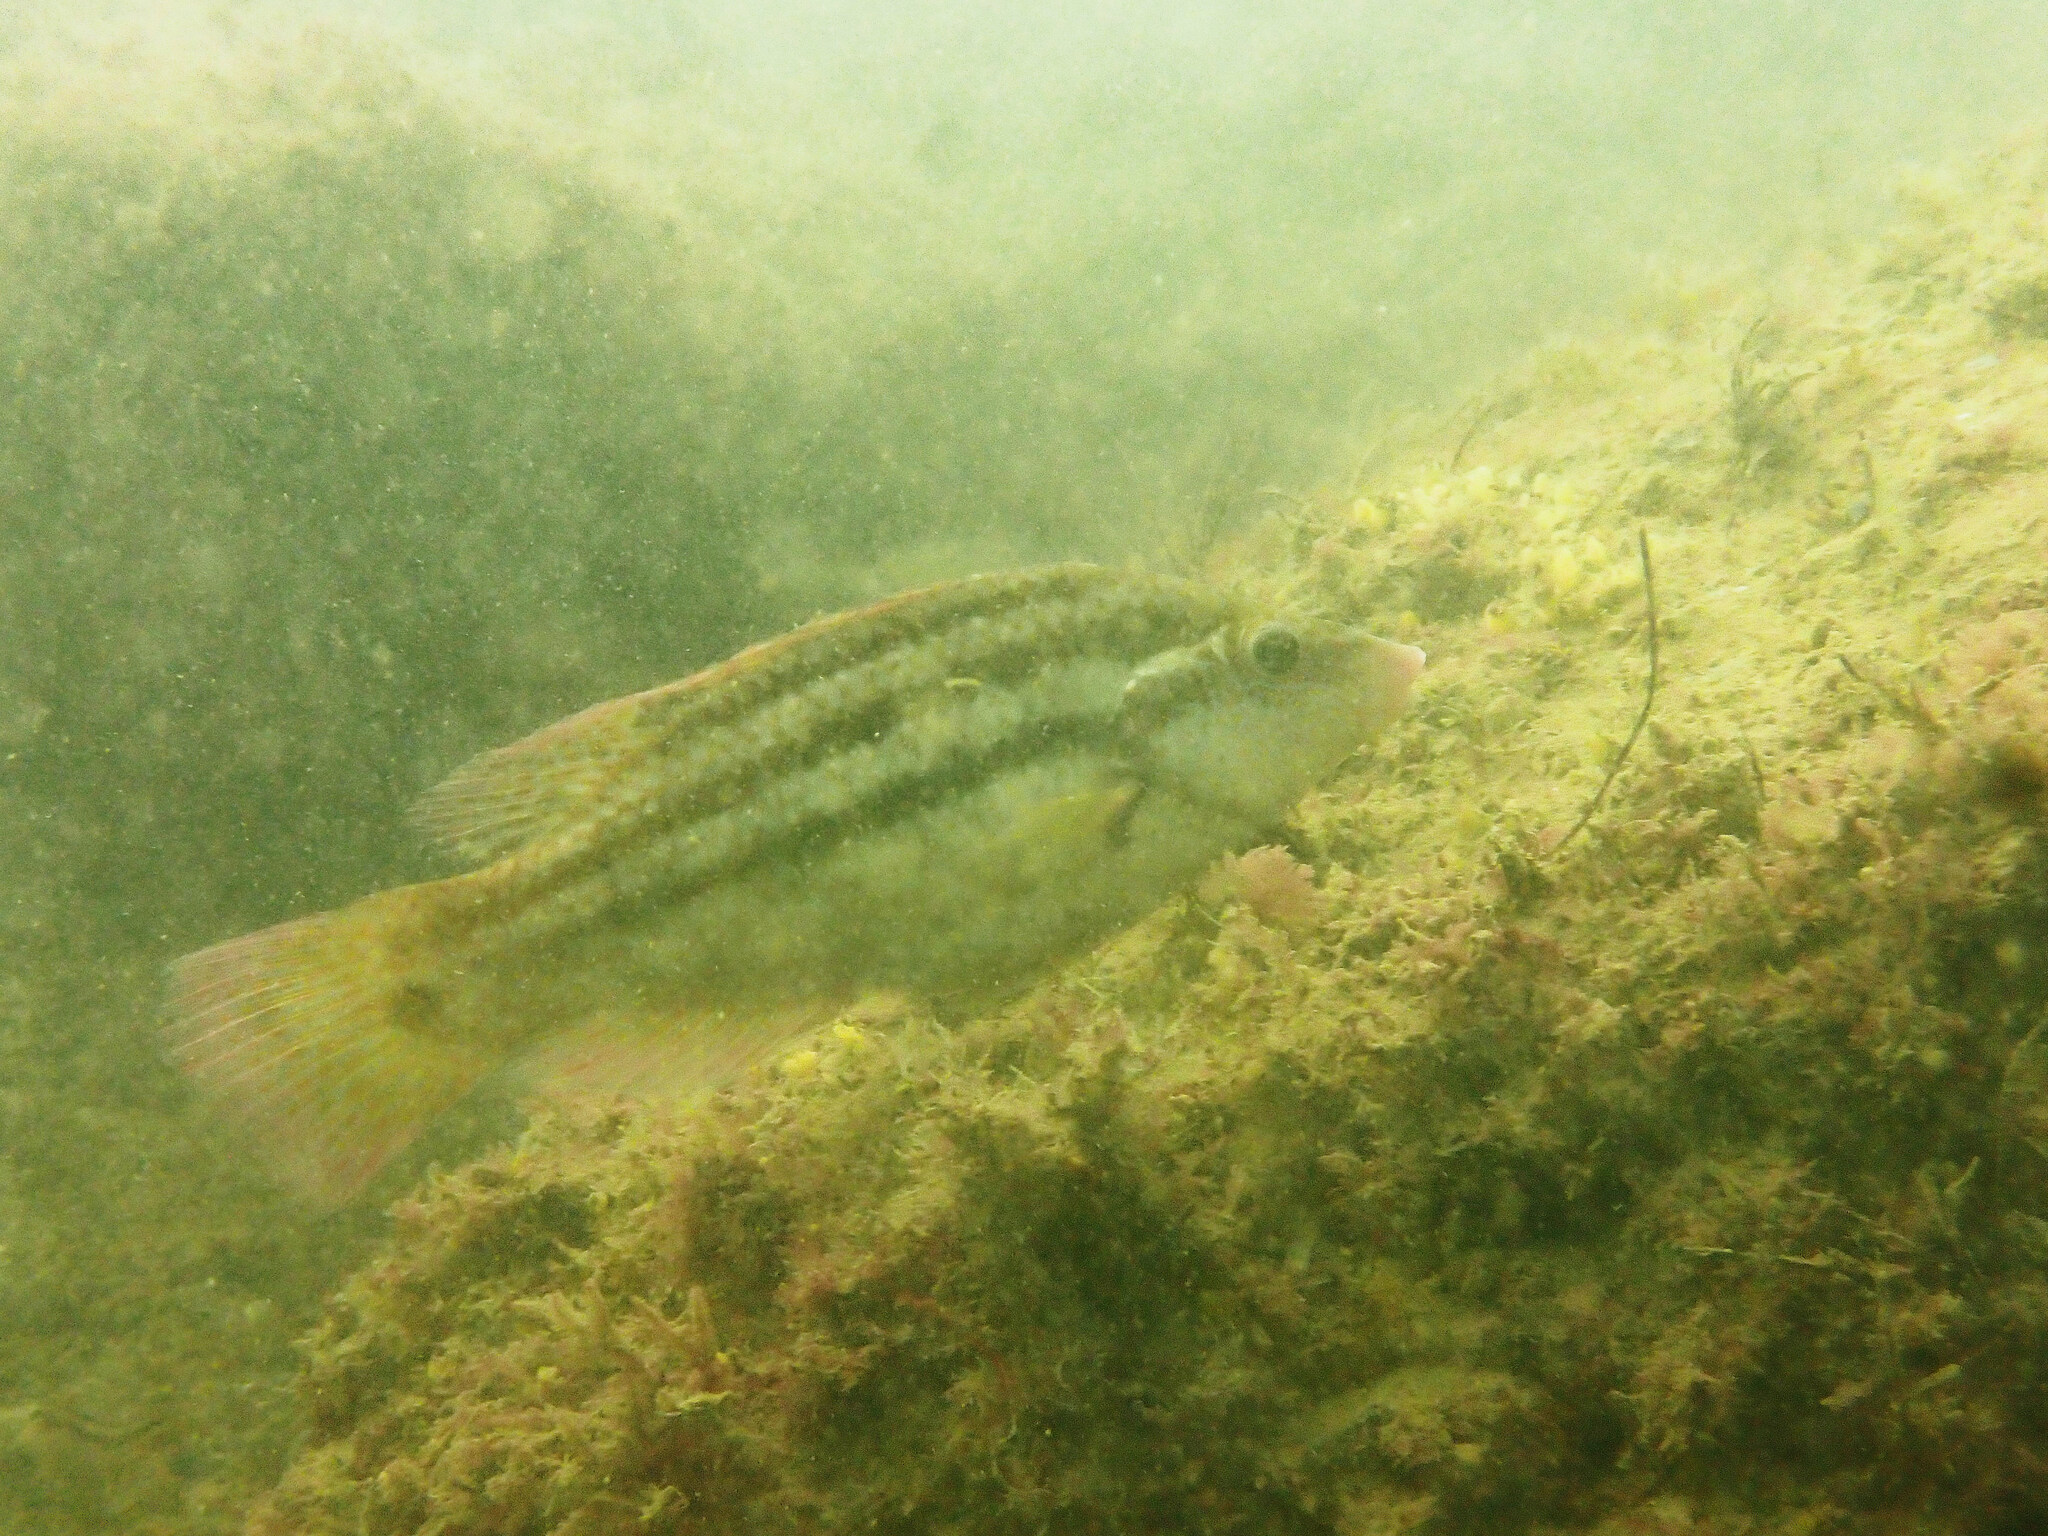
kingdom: Animalia
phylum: Chordata
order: Perciformes
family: Labridae
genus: Symphodus
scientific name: Symphodus bailloni
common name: Baillon's wrasse
